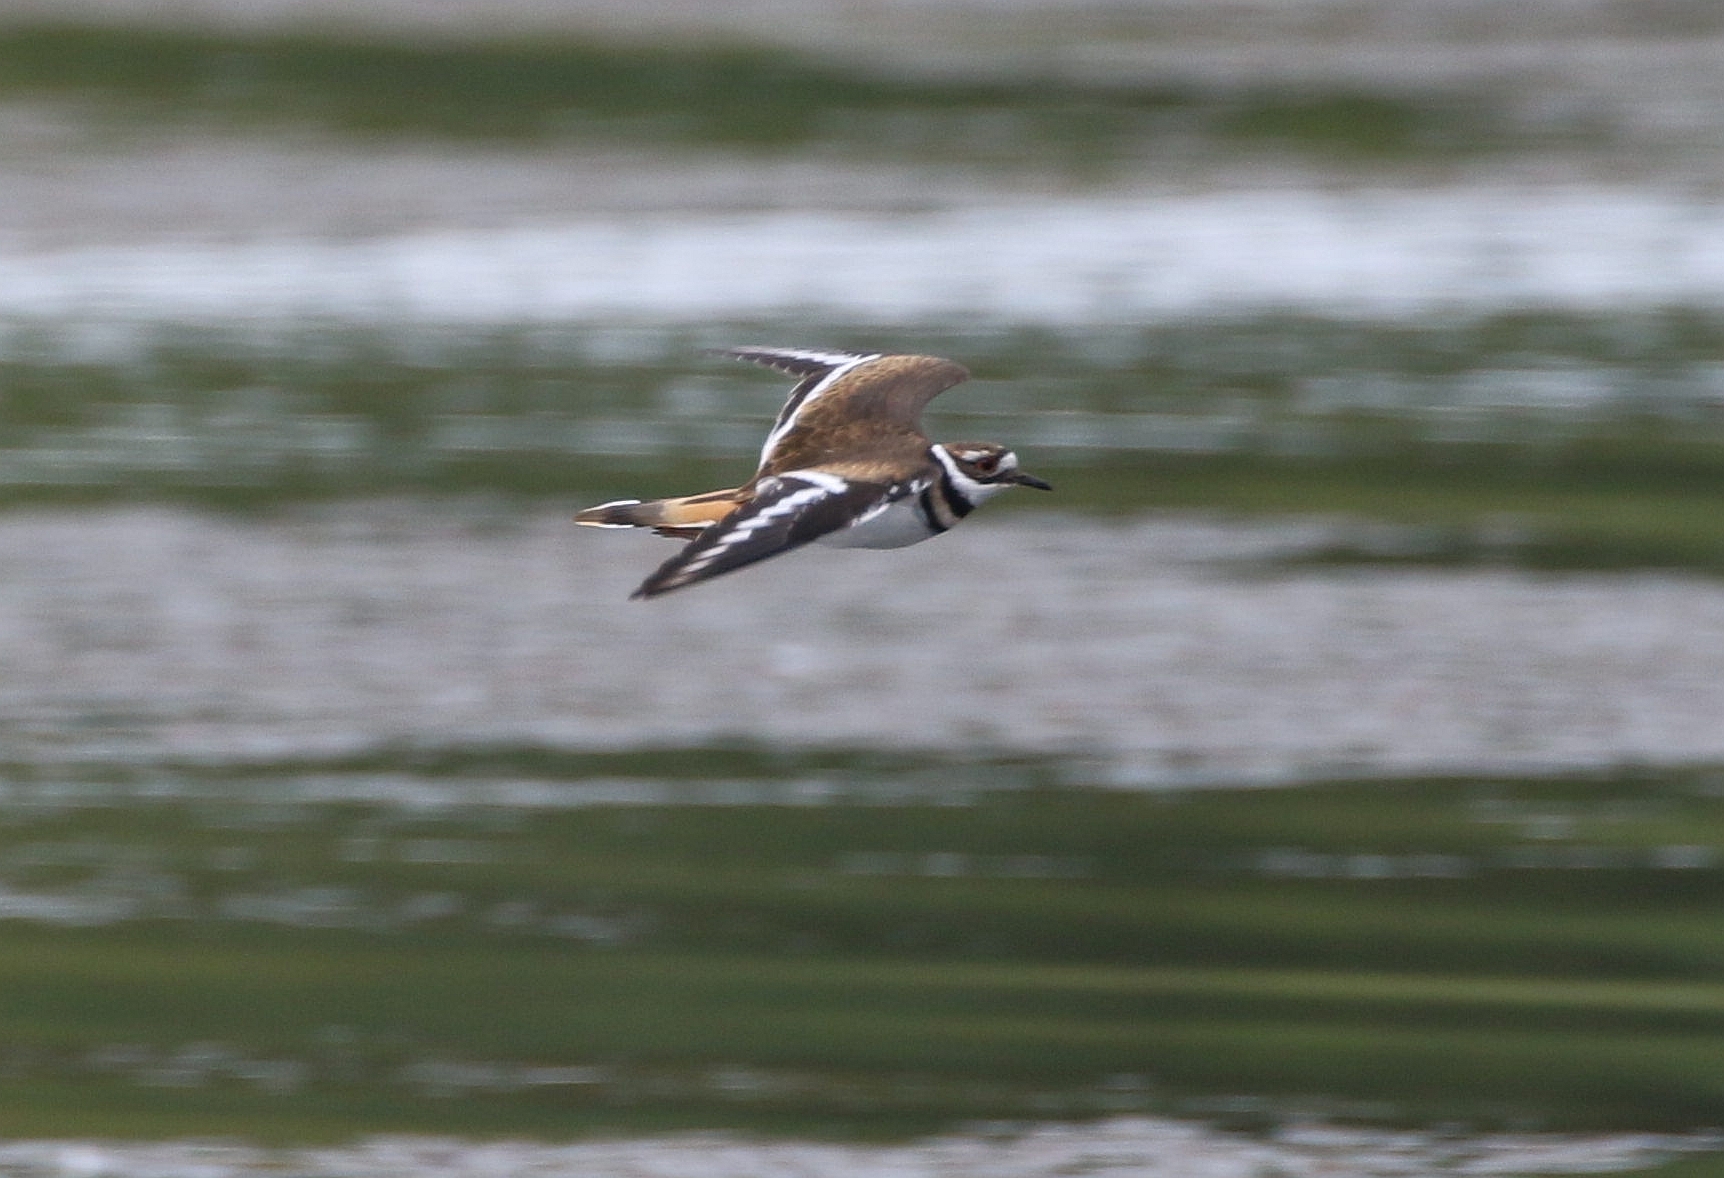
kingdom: Animalia
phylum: Chordata
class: Aves
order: Charadriiformes
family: Charadriidae
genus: Charadrius
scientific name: Charadrius vociferus
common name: Killdeer
